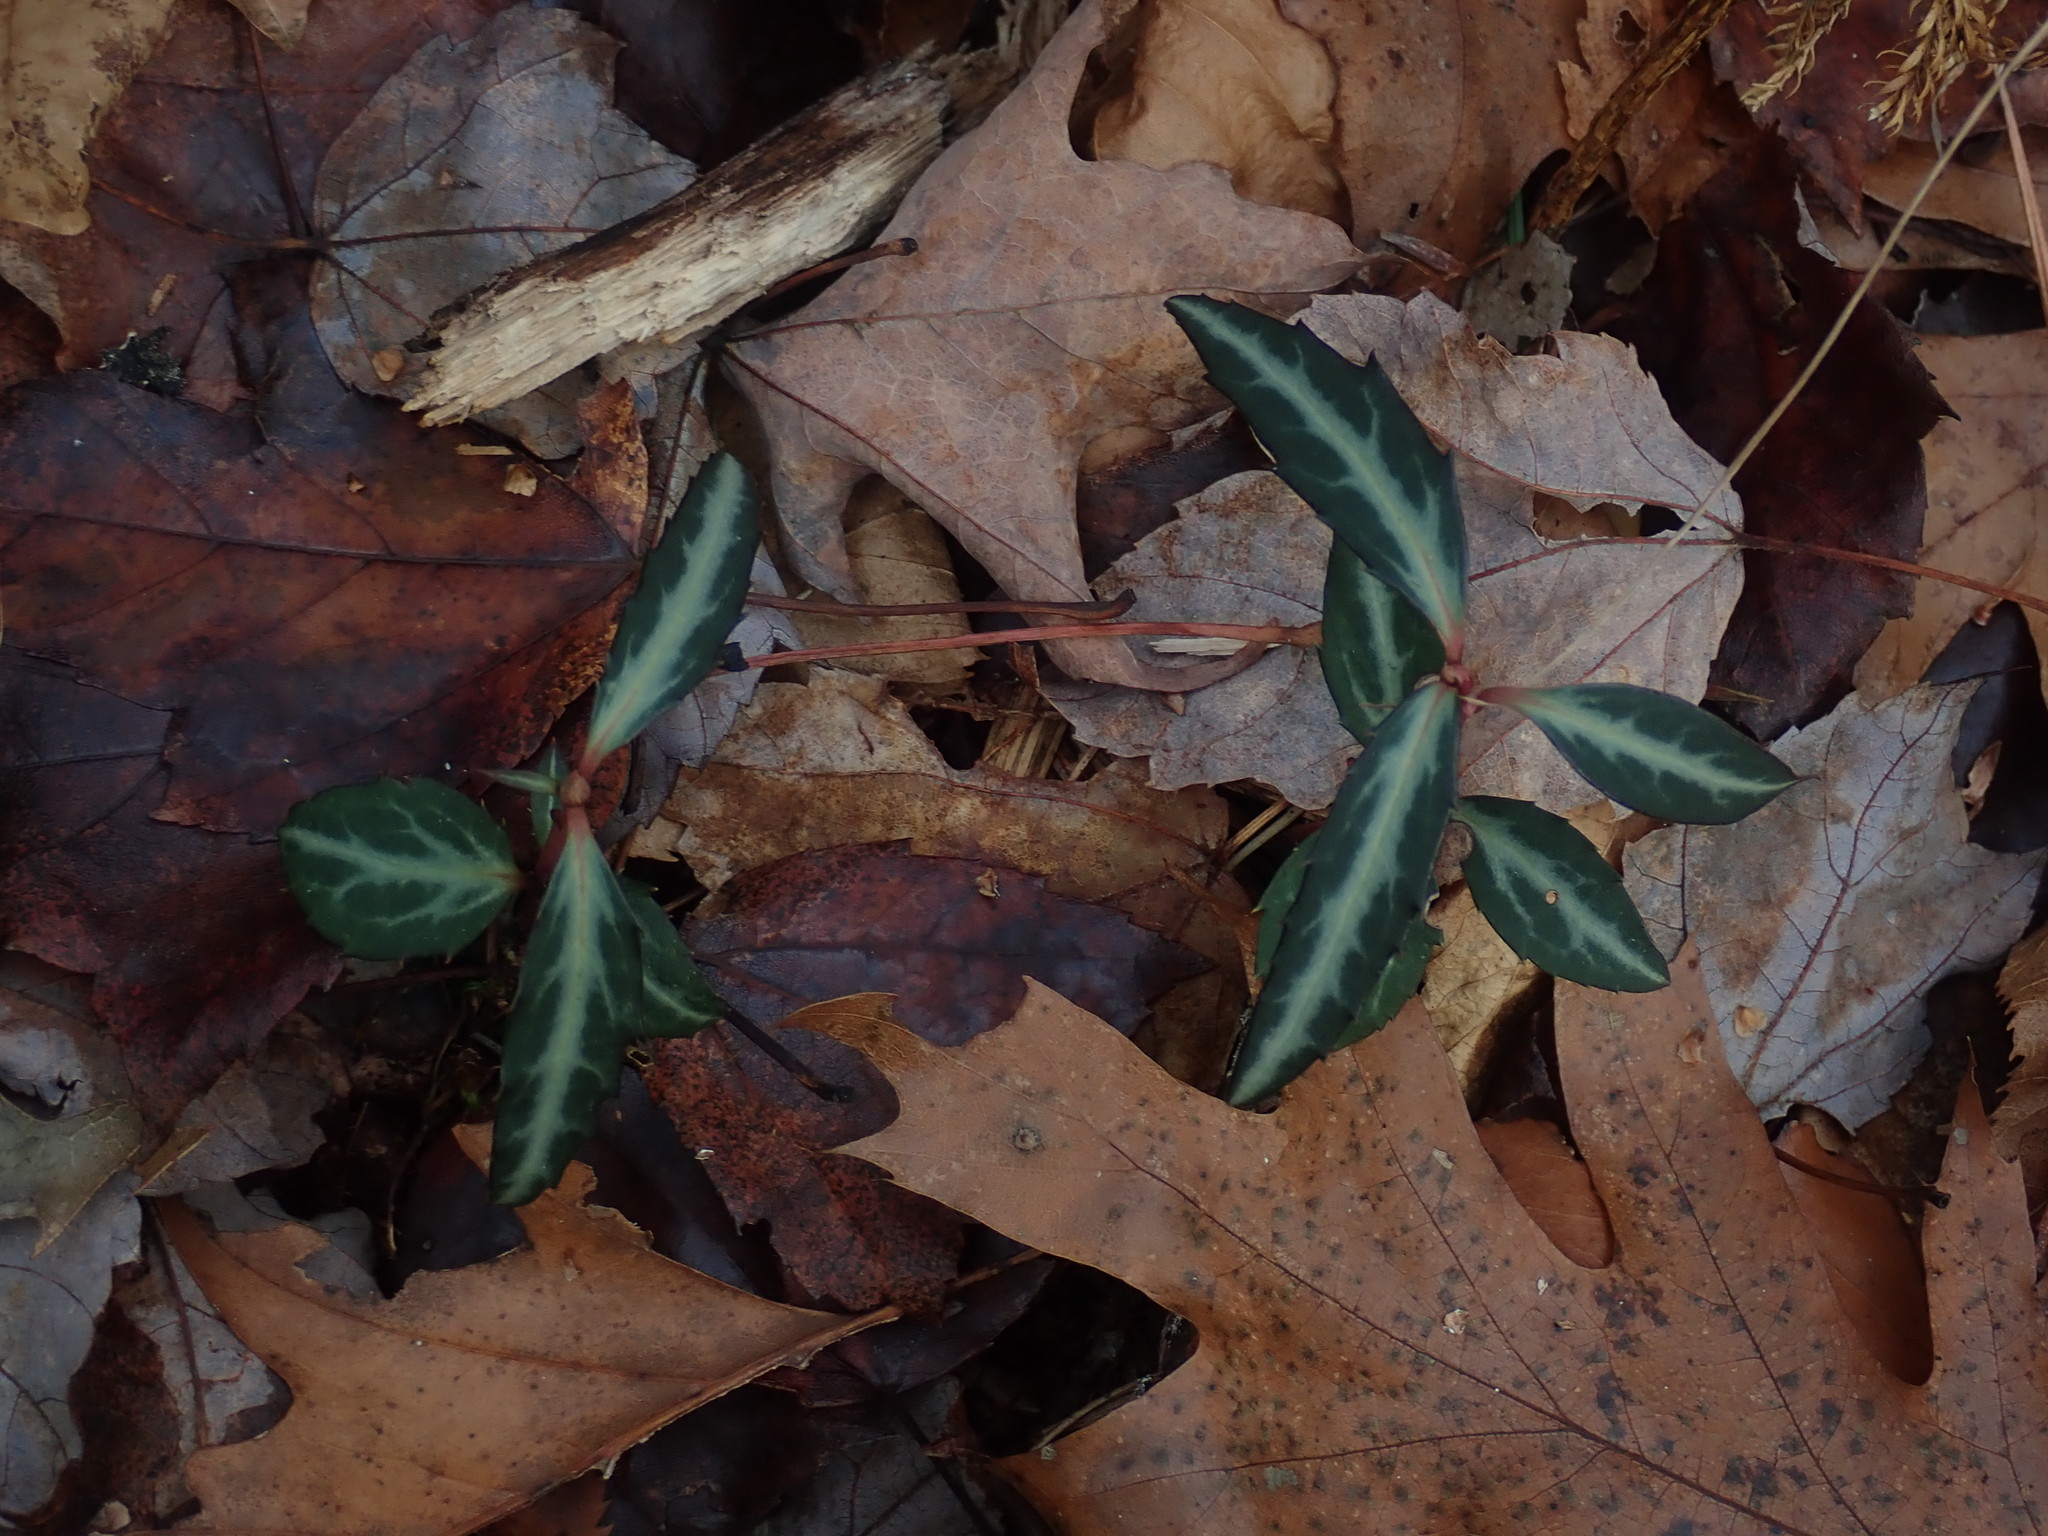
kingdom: Plantae
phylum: Tracheophyta
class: Magnoliopsida
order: Ericales
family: Ericaceae
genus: Chimaphila
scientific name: Chimaphila maculata
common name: Spotted pipsissewa
